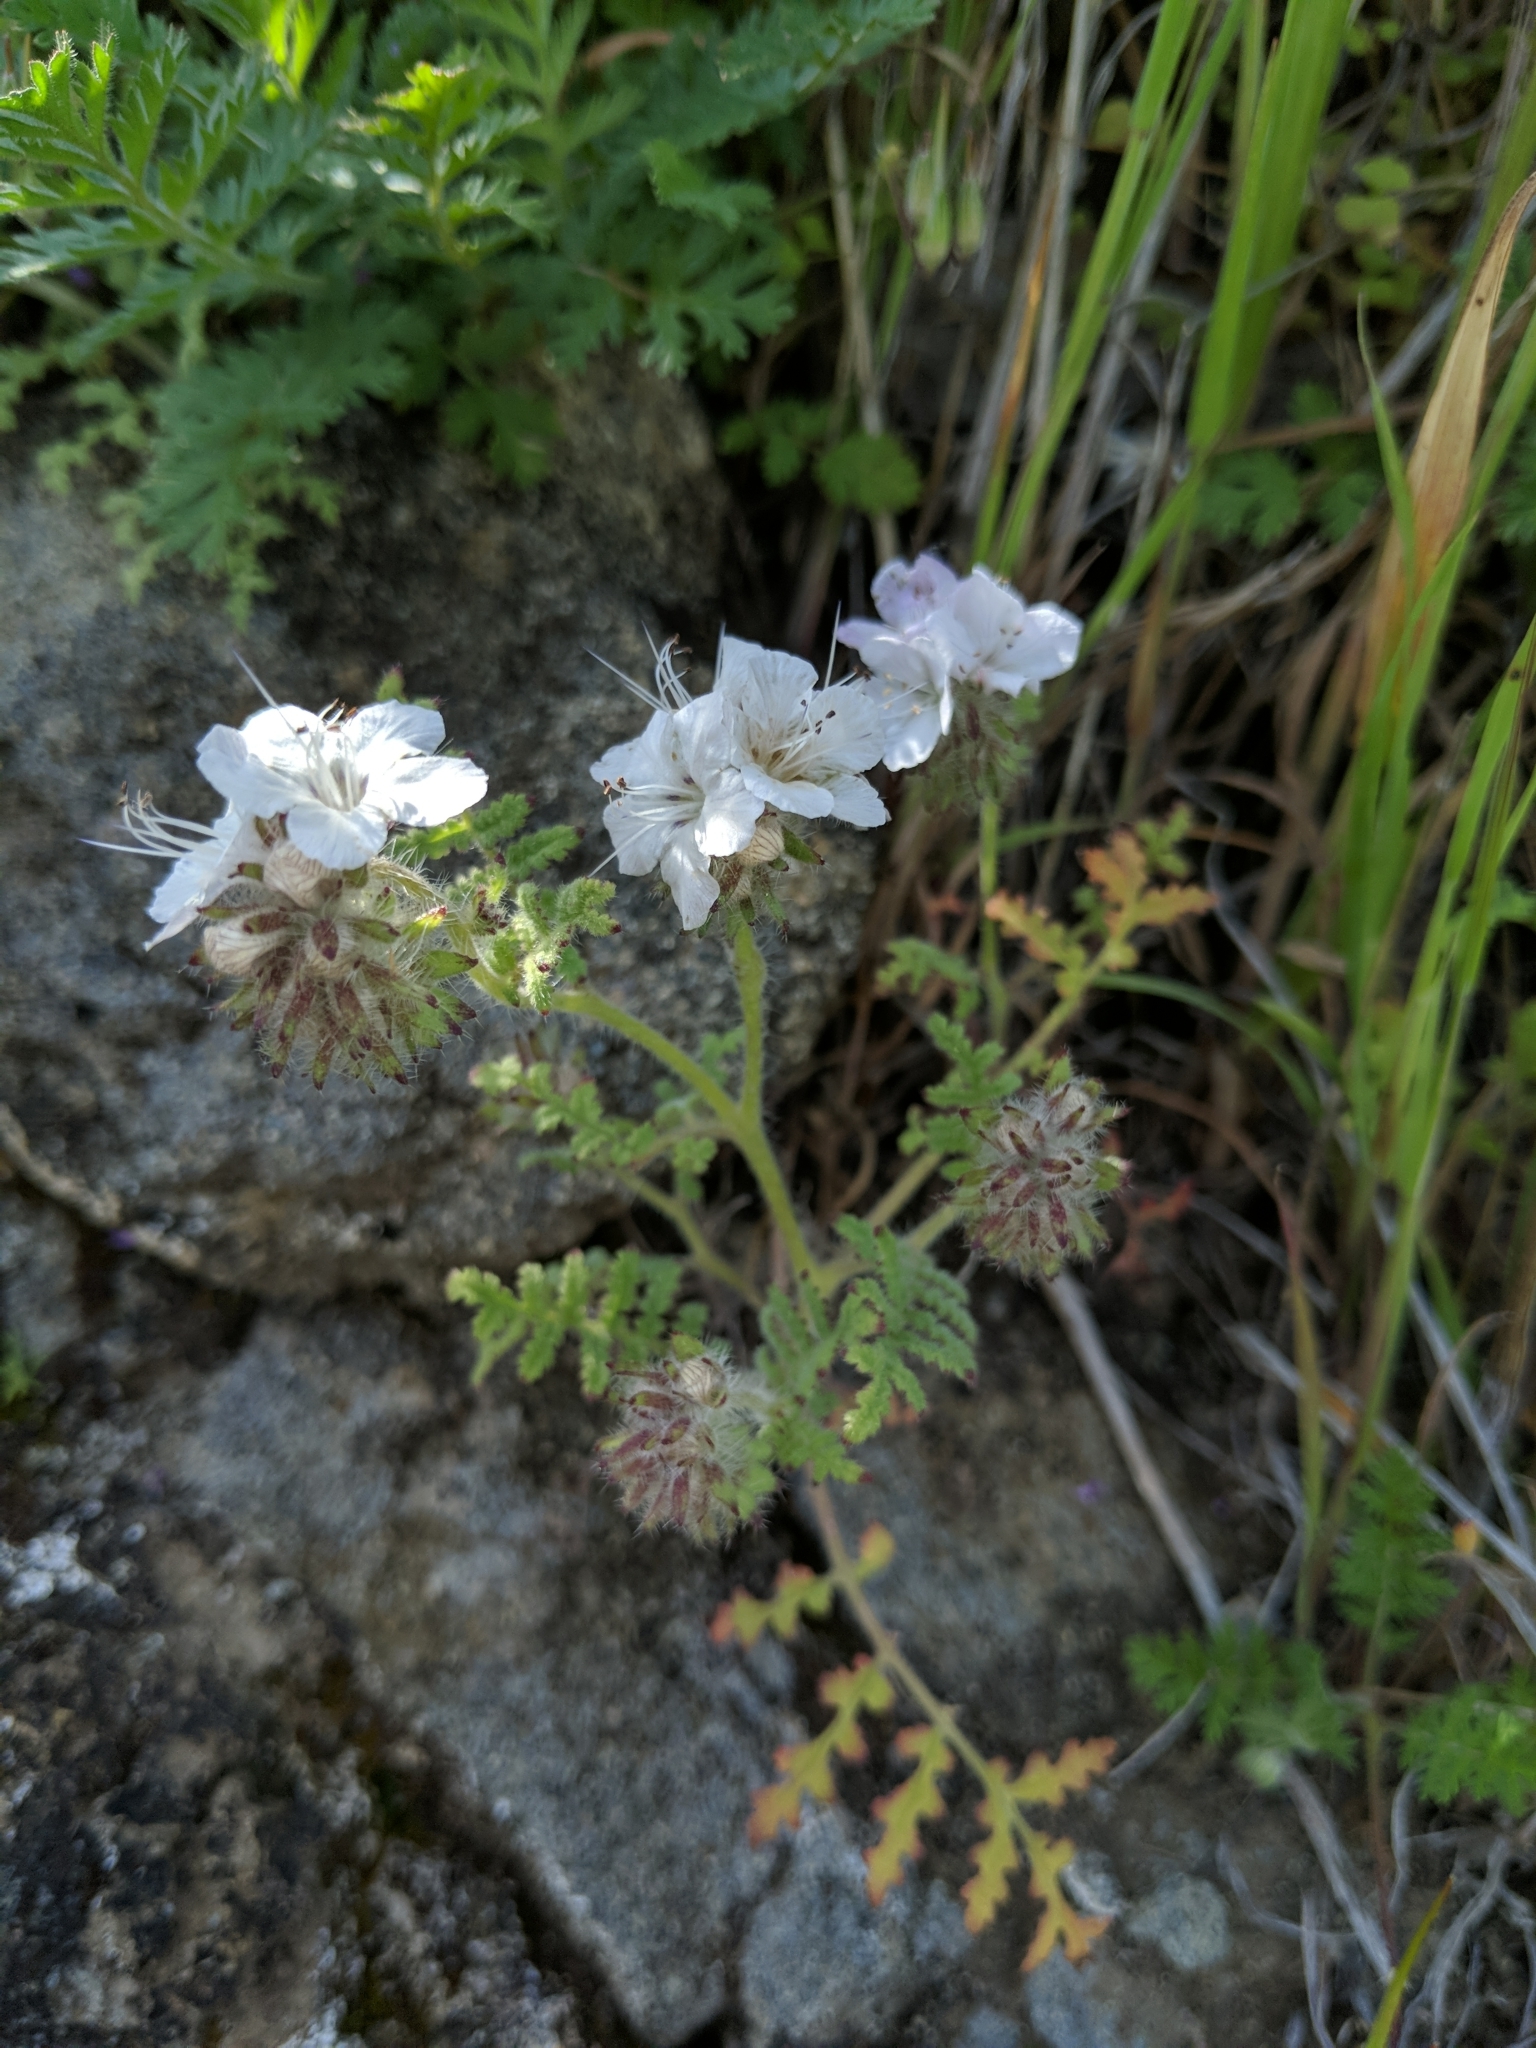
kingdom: Plantae
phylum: Tracheophyta
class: Magnoliopsida
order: Boraginales
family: Hydrophyllaceae
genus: Phacelia
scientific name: Phacelia distans
